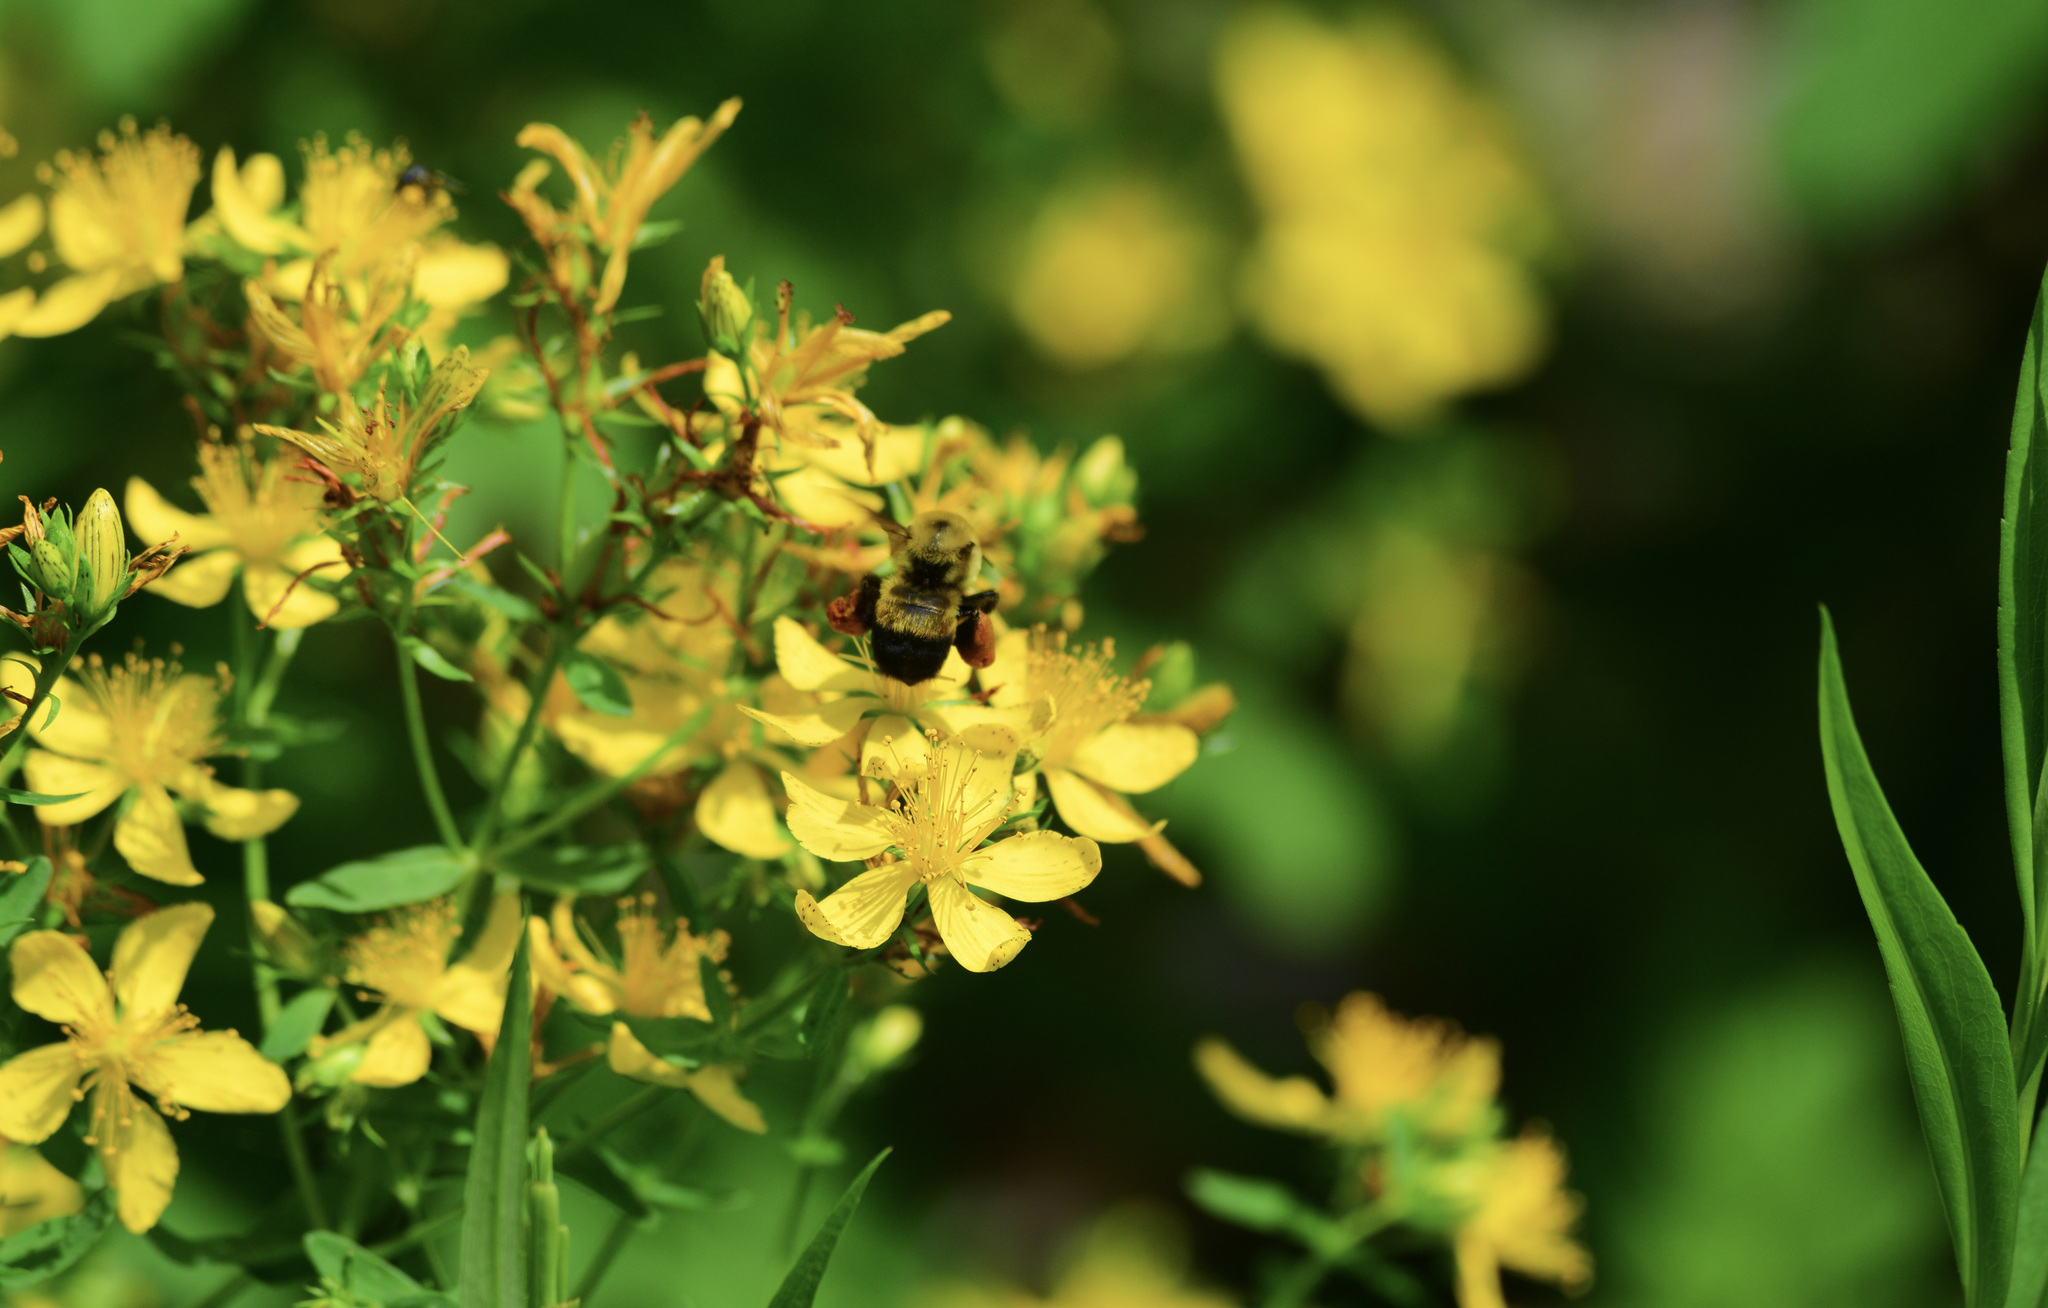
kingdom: Animalia
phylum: Arthropoda
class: Insecta
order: Hymenoptera
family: Apidae
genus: Bombus
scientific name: Bombus griseocollis
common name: Brown-belted bumble bee
